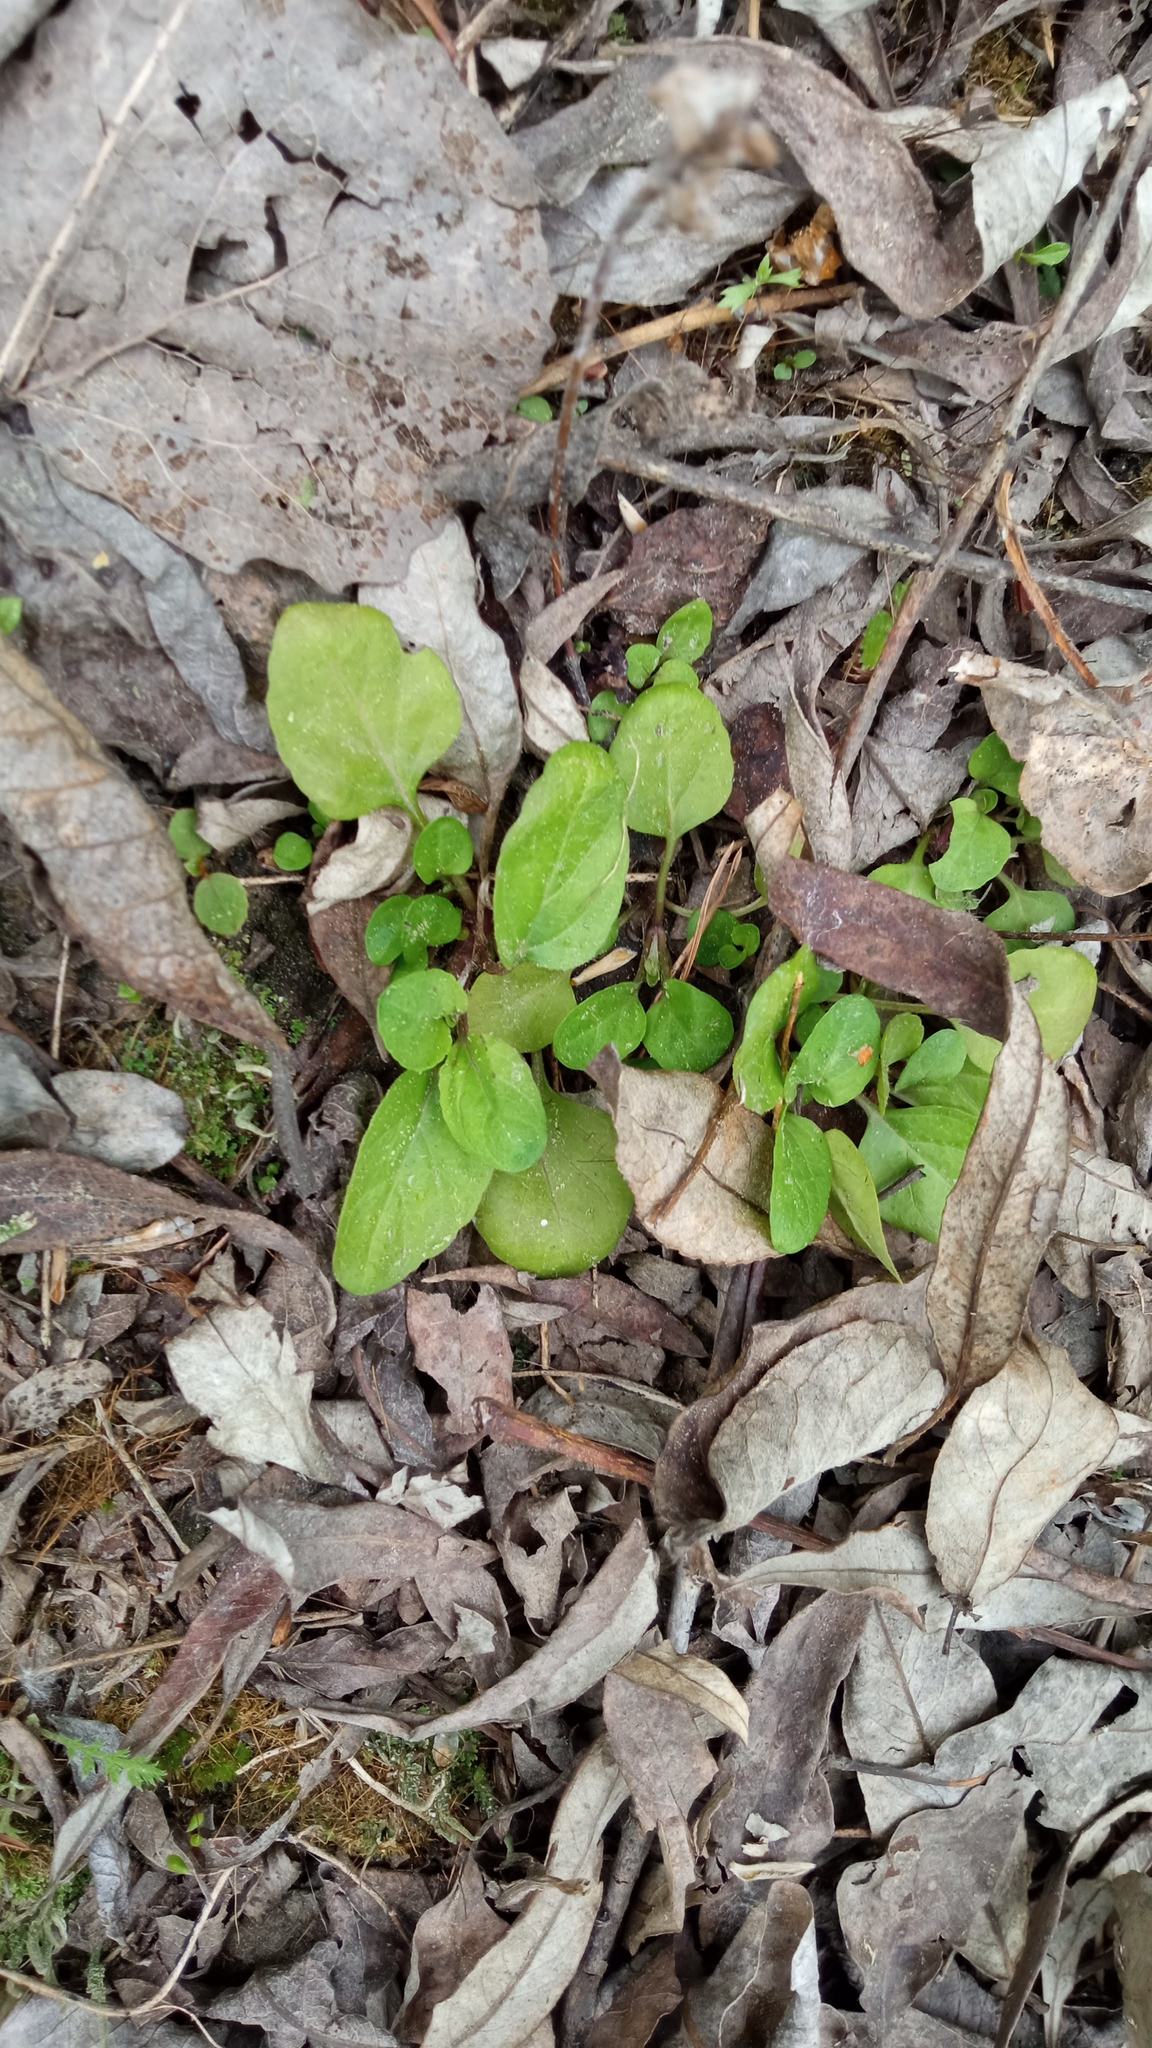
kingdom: Plantae
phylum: Tracheophyta
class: Magnoliopsida
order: Lamiales
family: Lamiaceae
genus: Prunella
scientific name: Prunella vulgaris
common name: Heal-all
